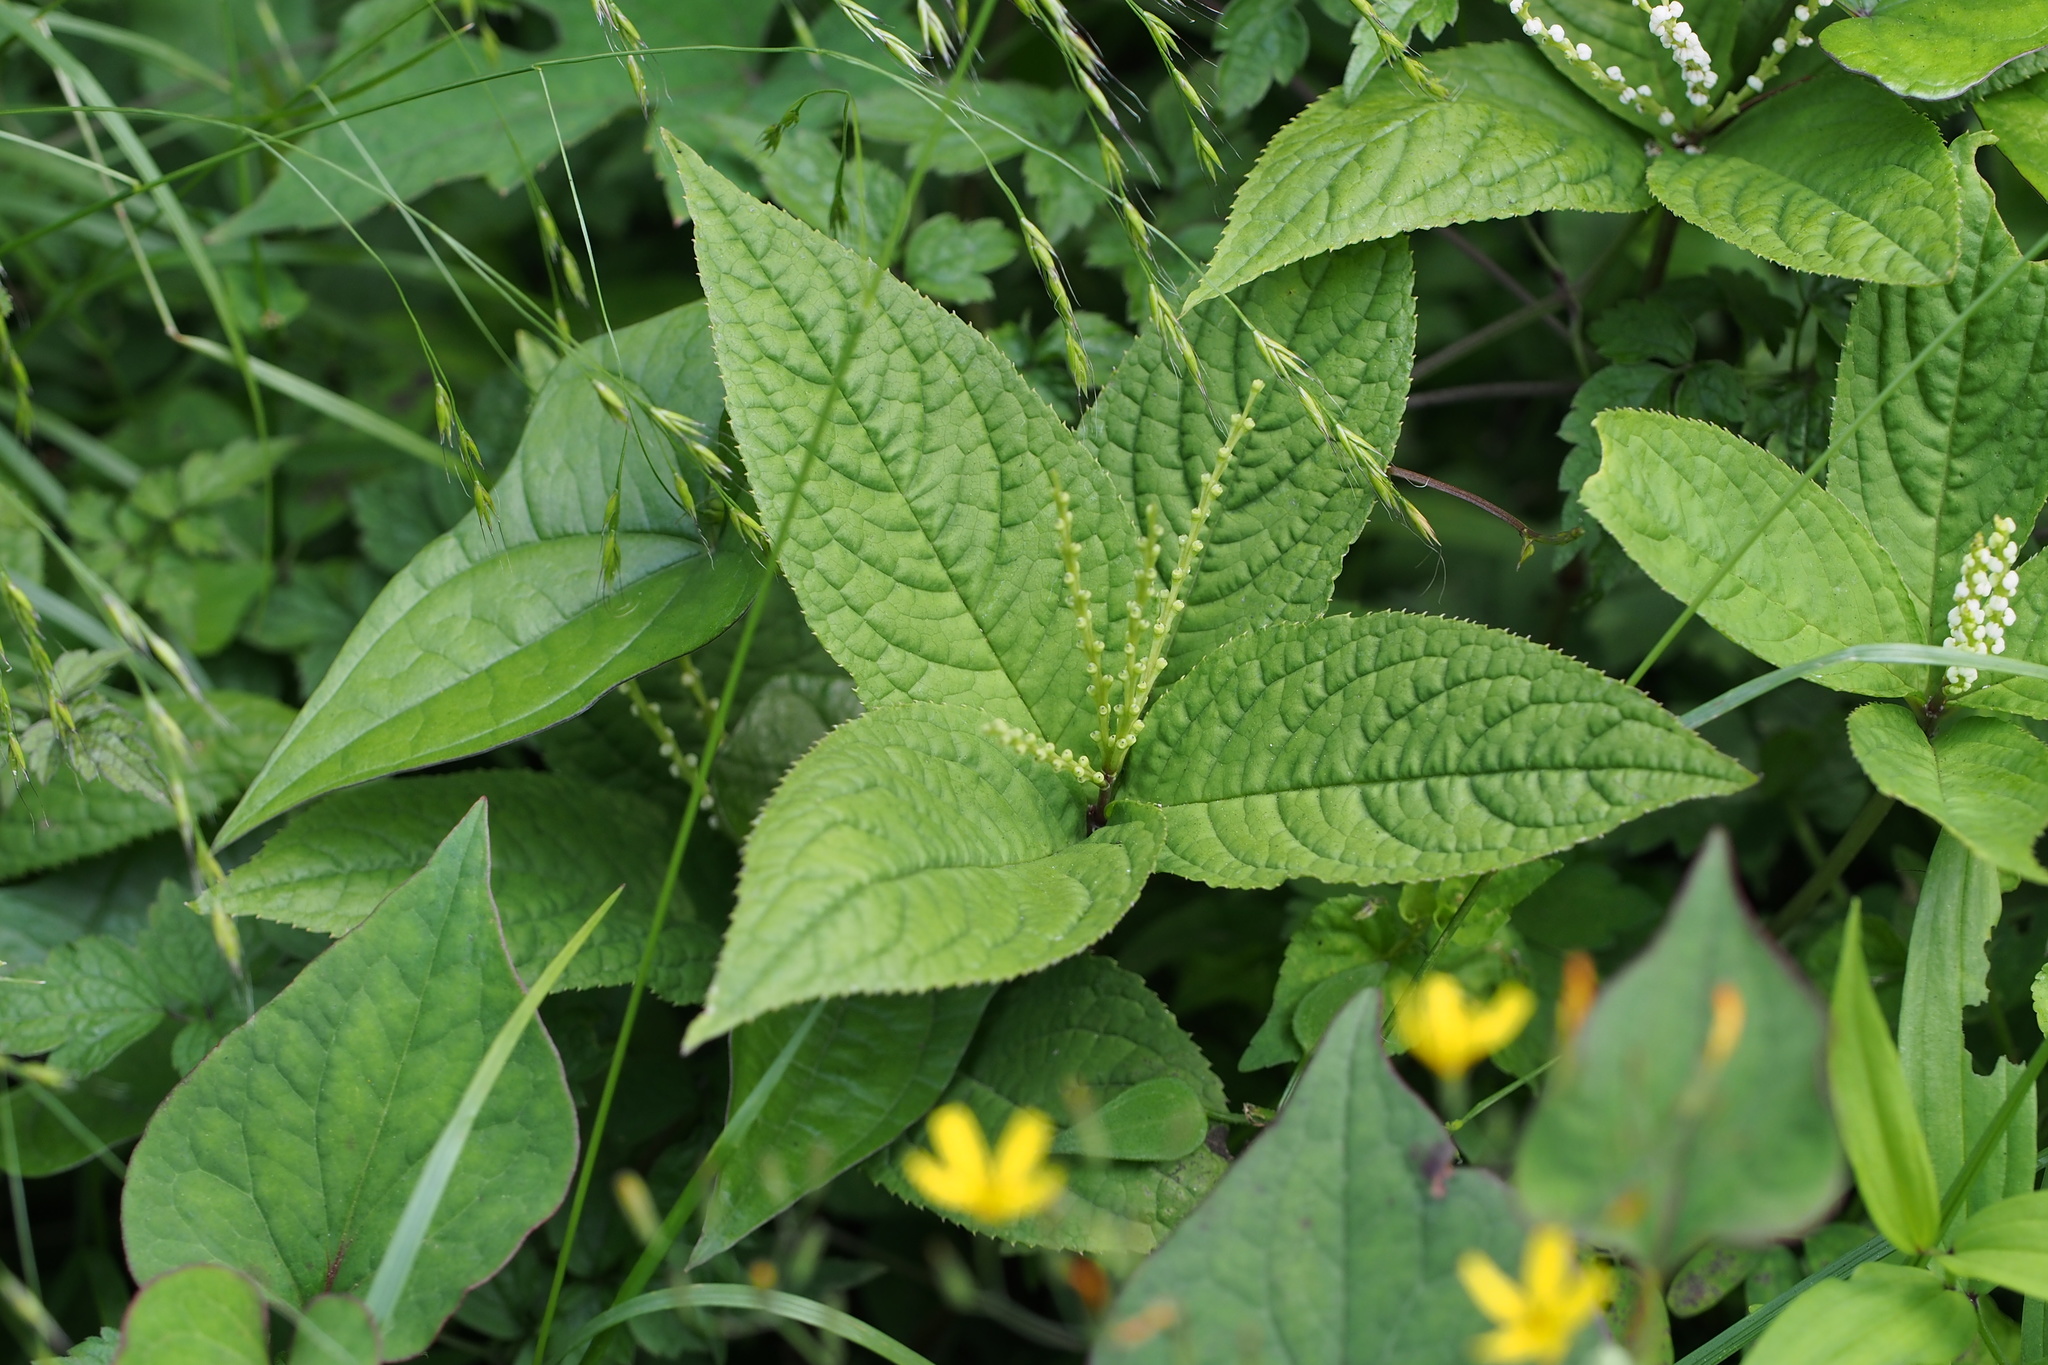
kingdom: Plantae
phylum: Tracheophyta
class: Magnoliopsida
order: Chloranthales
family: Chloranthaceae
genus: Chloranthus
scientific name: Chloranthus serratus
